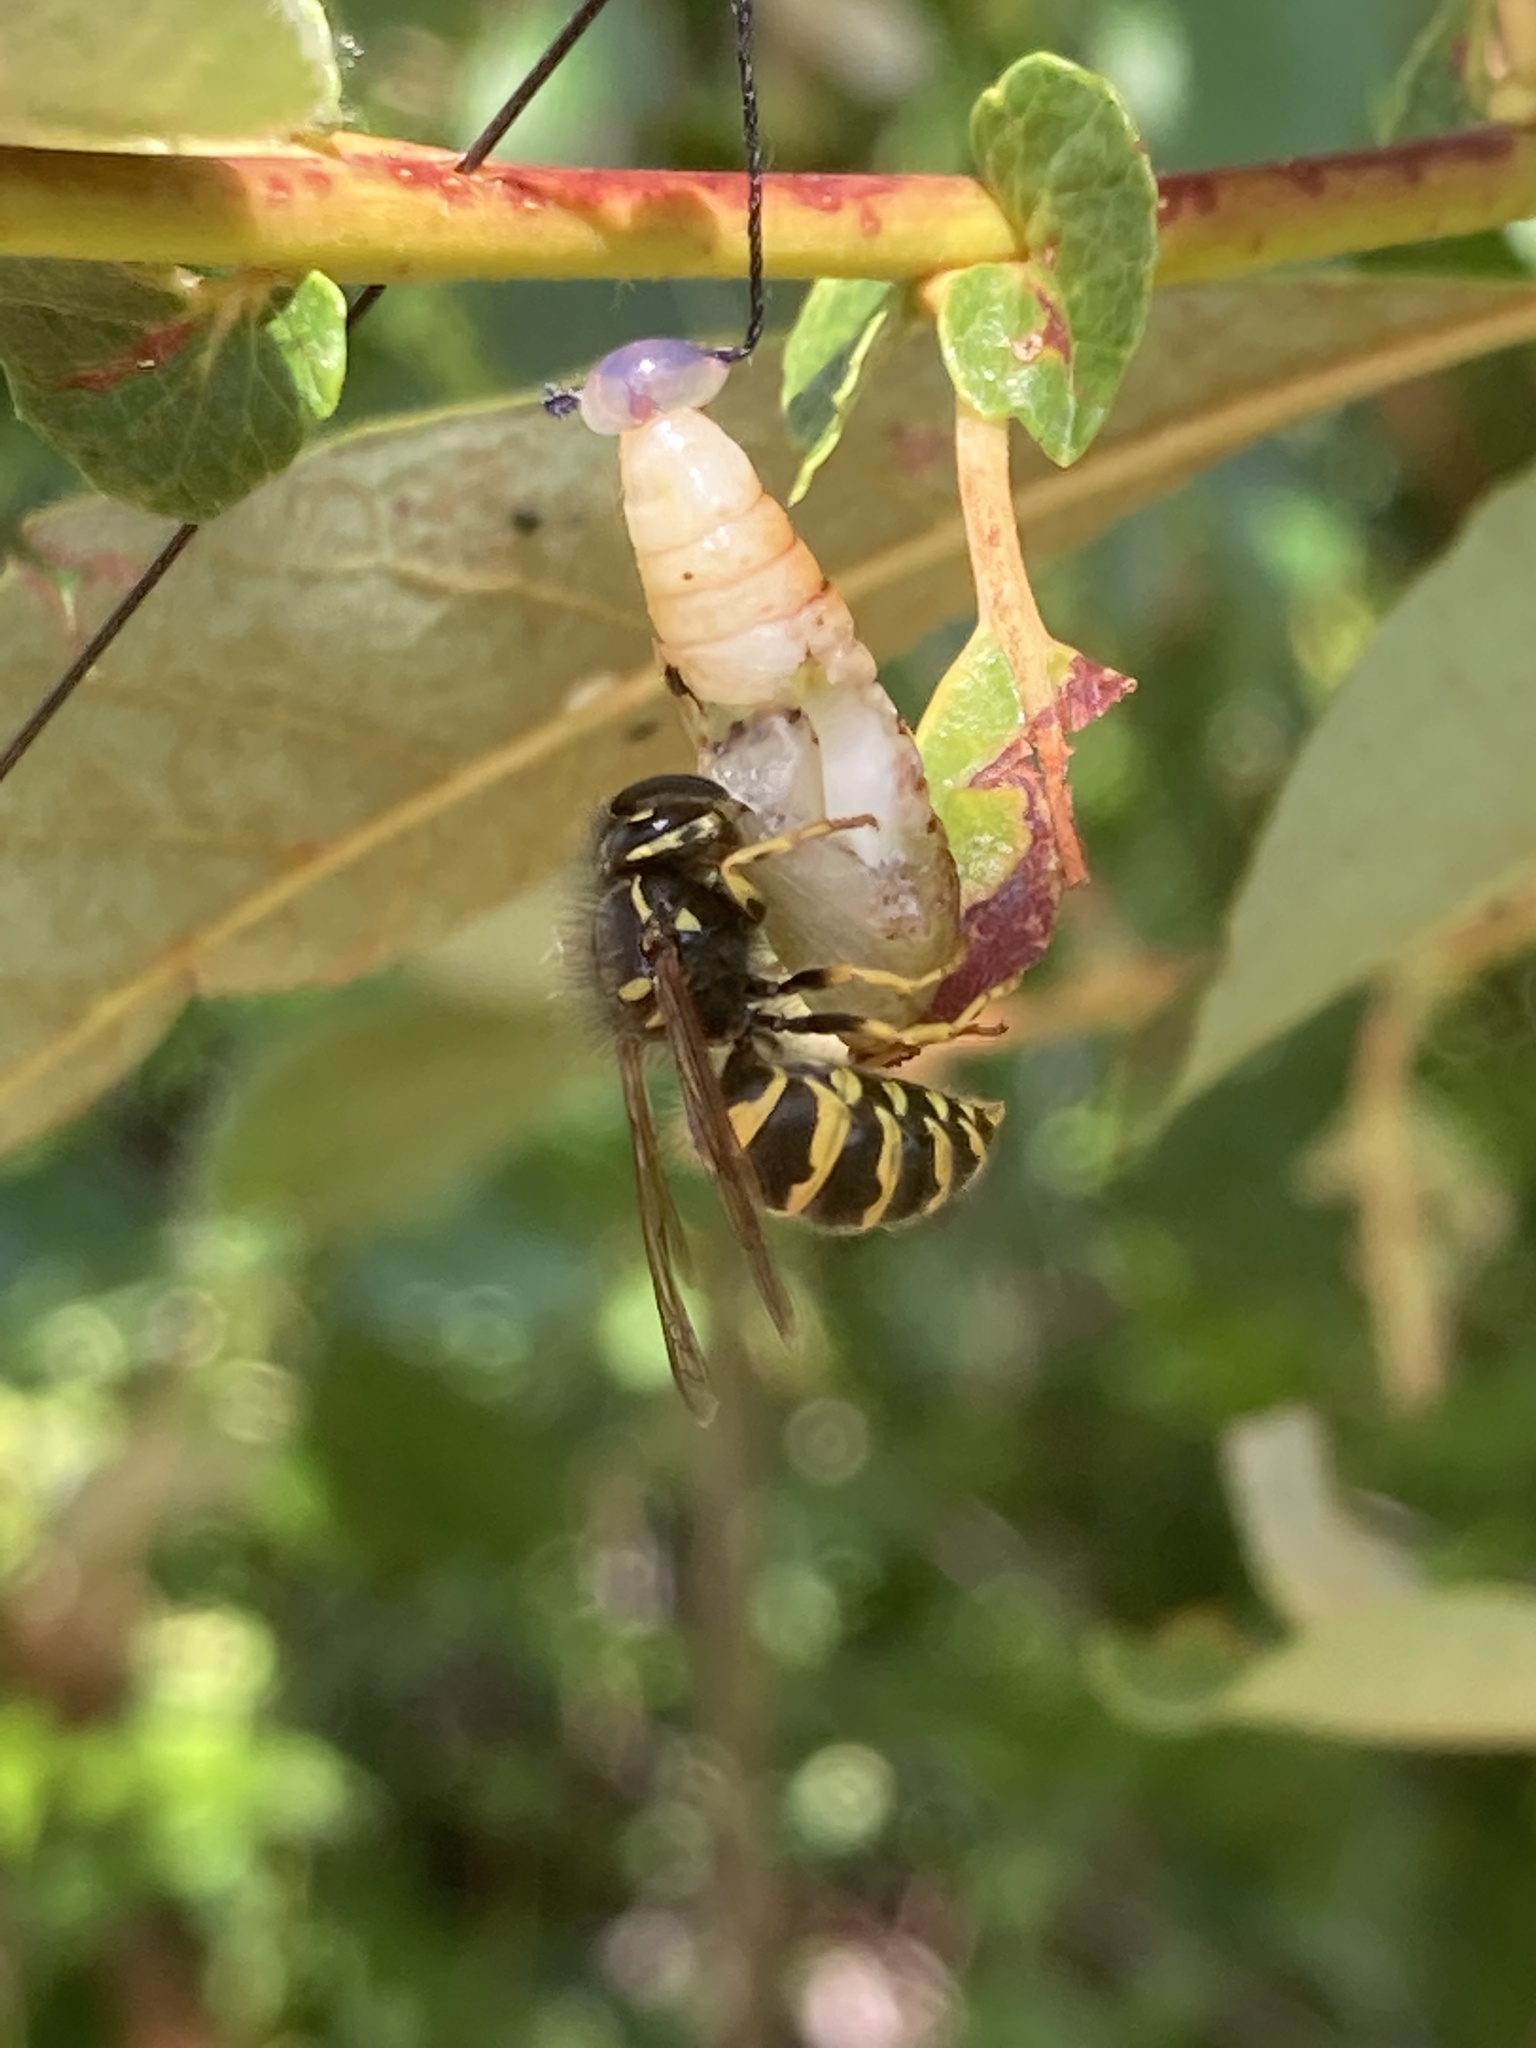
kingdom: Animalia
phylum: Arthropoda
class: Insecta
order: Hymenoptera
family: Vespidae
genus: Vespula
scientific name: Vespula alascensis
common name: Alaska yellowjacket
